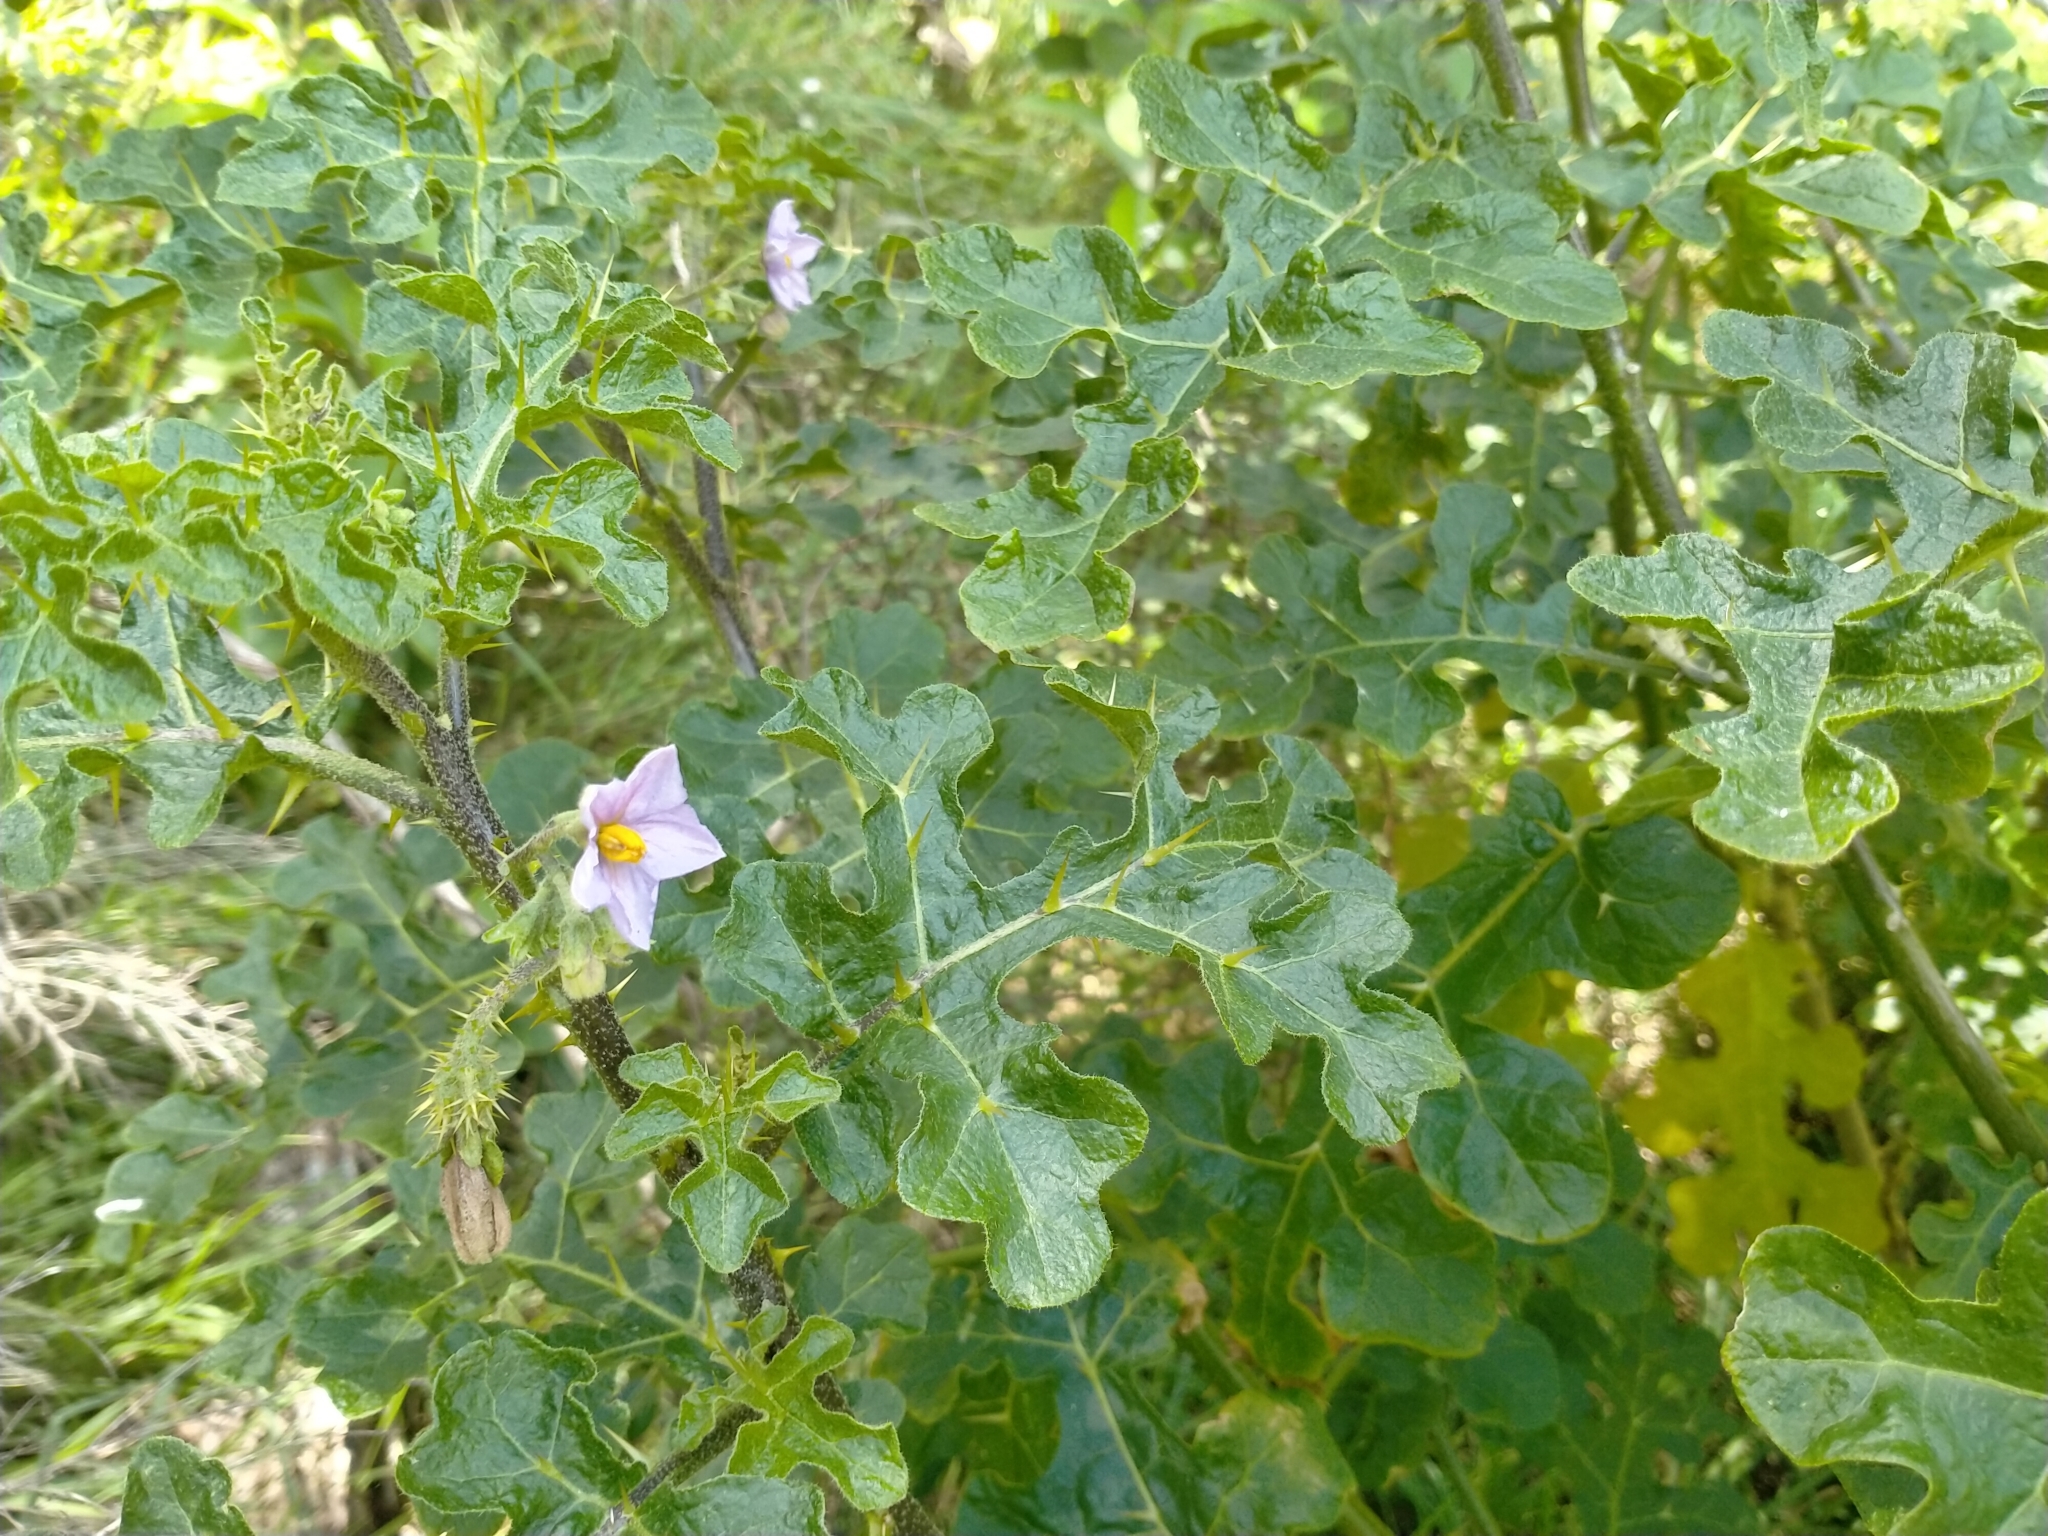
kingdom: Plantae
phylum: Tracheophyta
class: Magnoliopsida
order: Solanales
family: Solanaceae
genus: Solanum
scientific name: Solanum linnaeanum
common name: Nightshade
